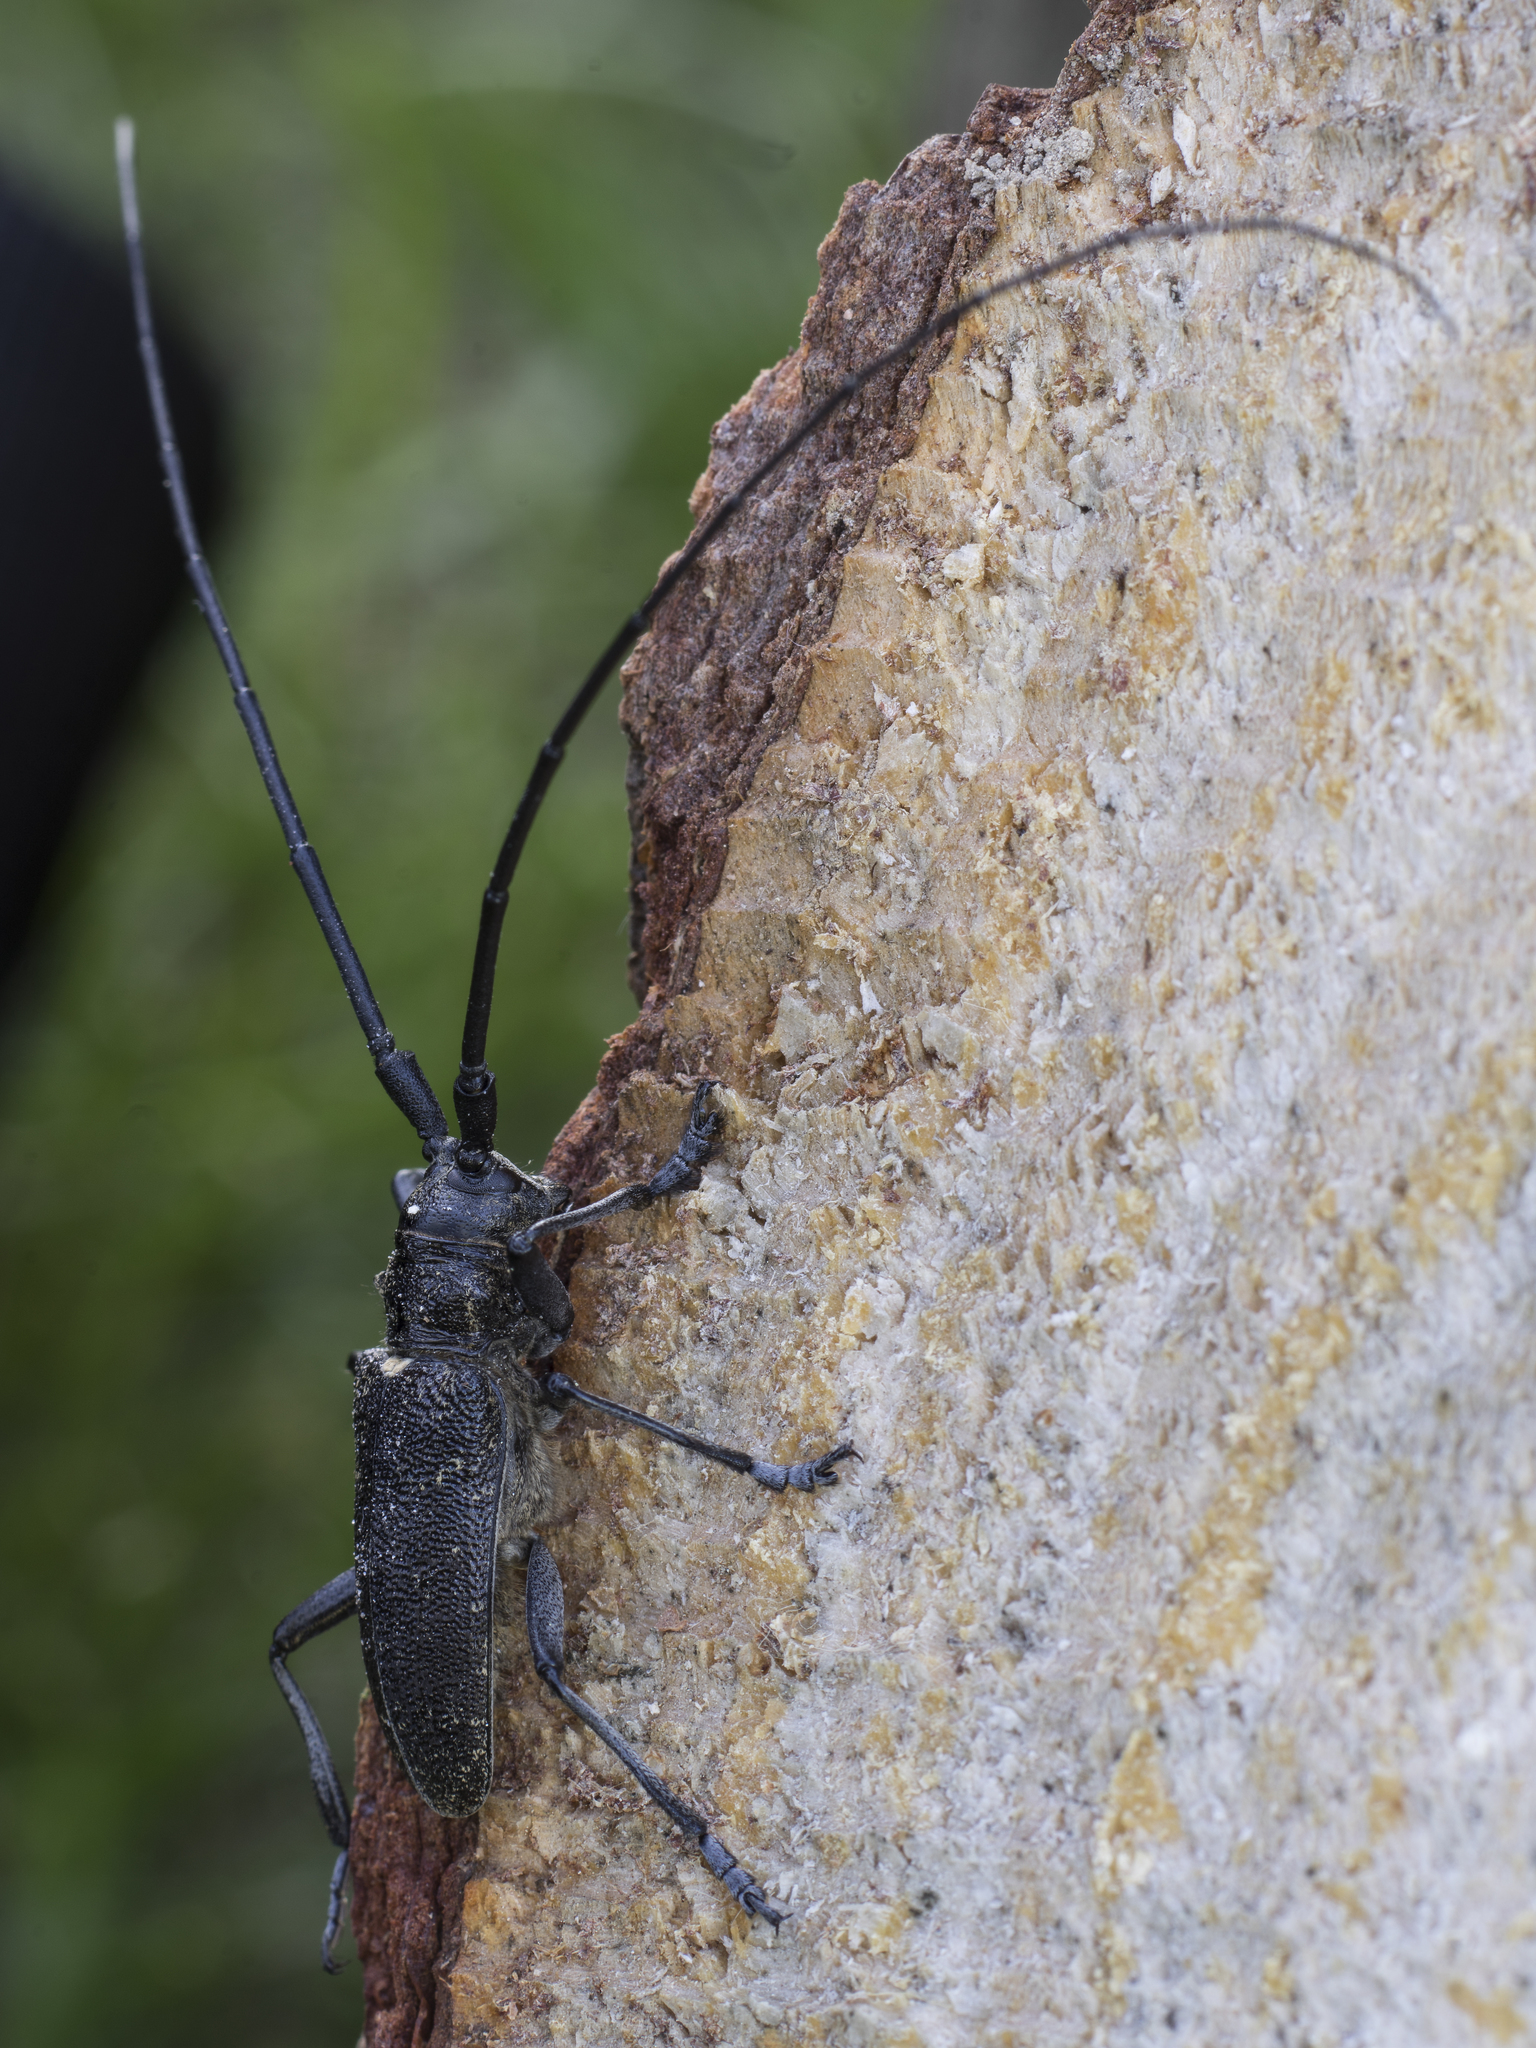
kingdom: Animalia
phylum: Arthropoda
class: Insecta
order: Coleoptera
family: Cerambycidae
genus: Monochamus
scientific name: Monochamus sutor
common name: Pine sawyer
